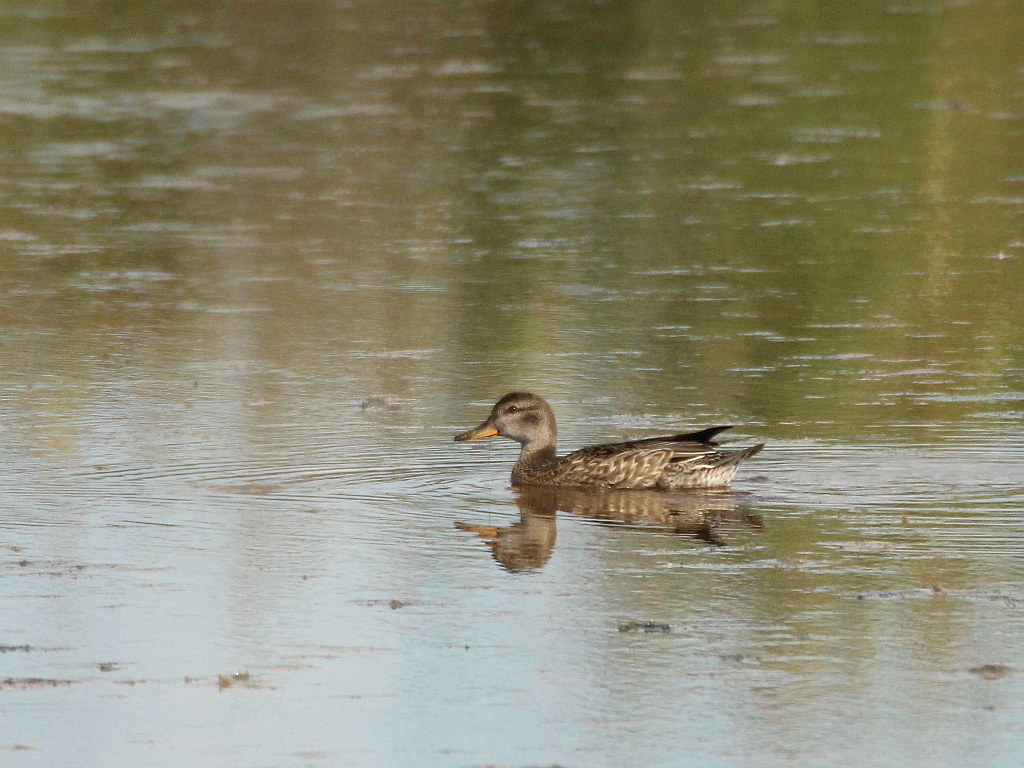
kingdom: Animalia
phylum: Chordata
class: Aves
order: Anseriformes
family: Anatidae
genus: Anas
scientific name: Anas crecca
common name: Eurasian teal
